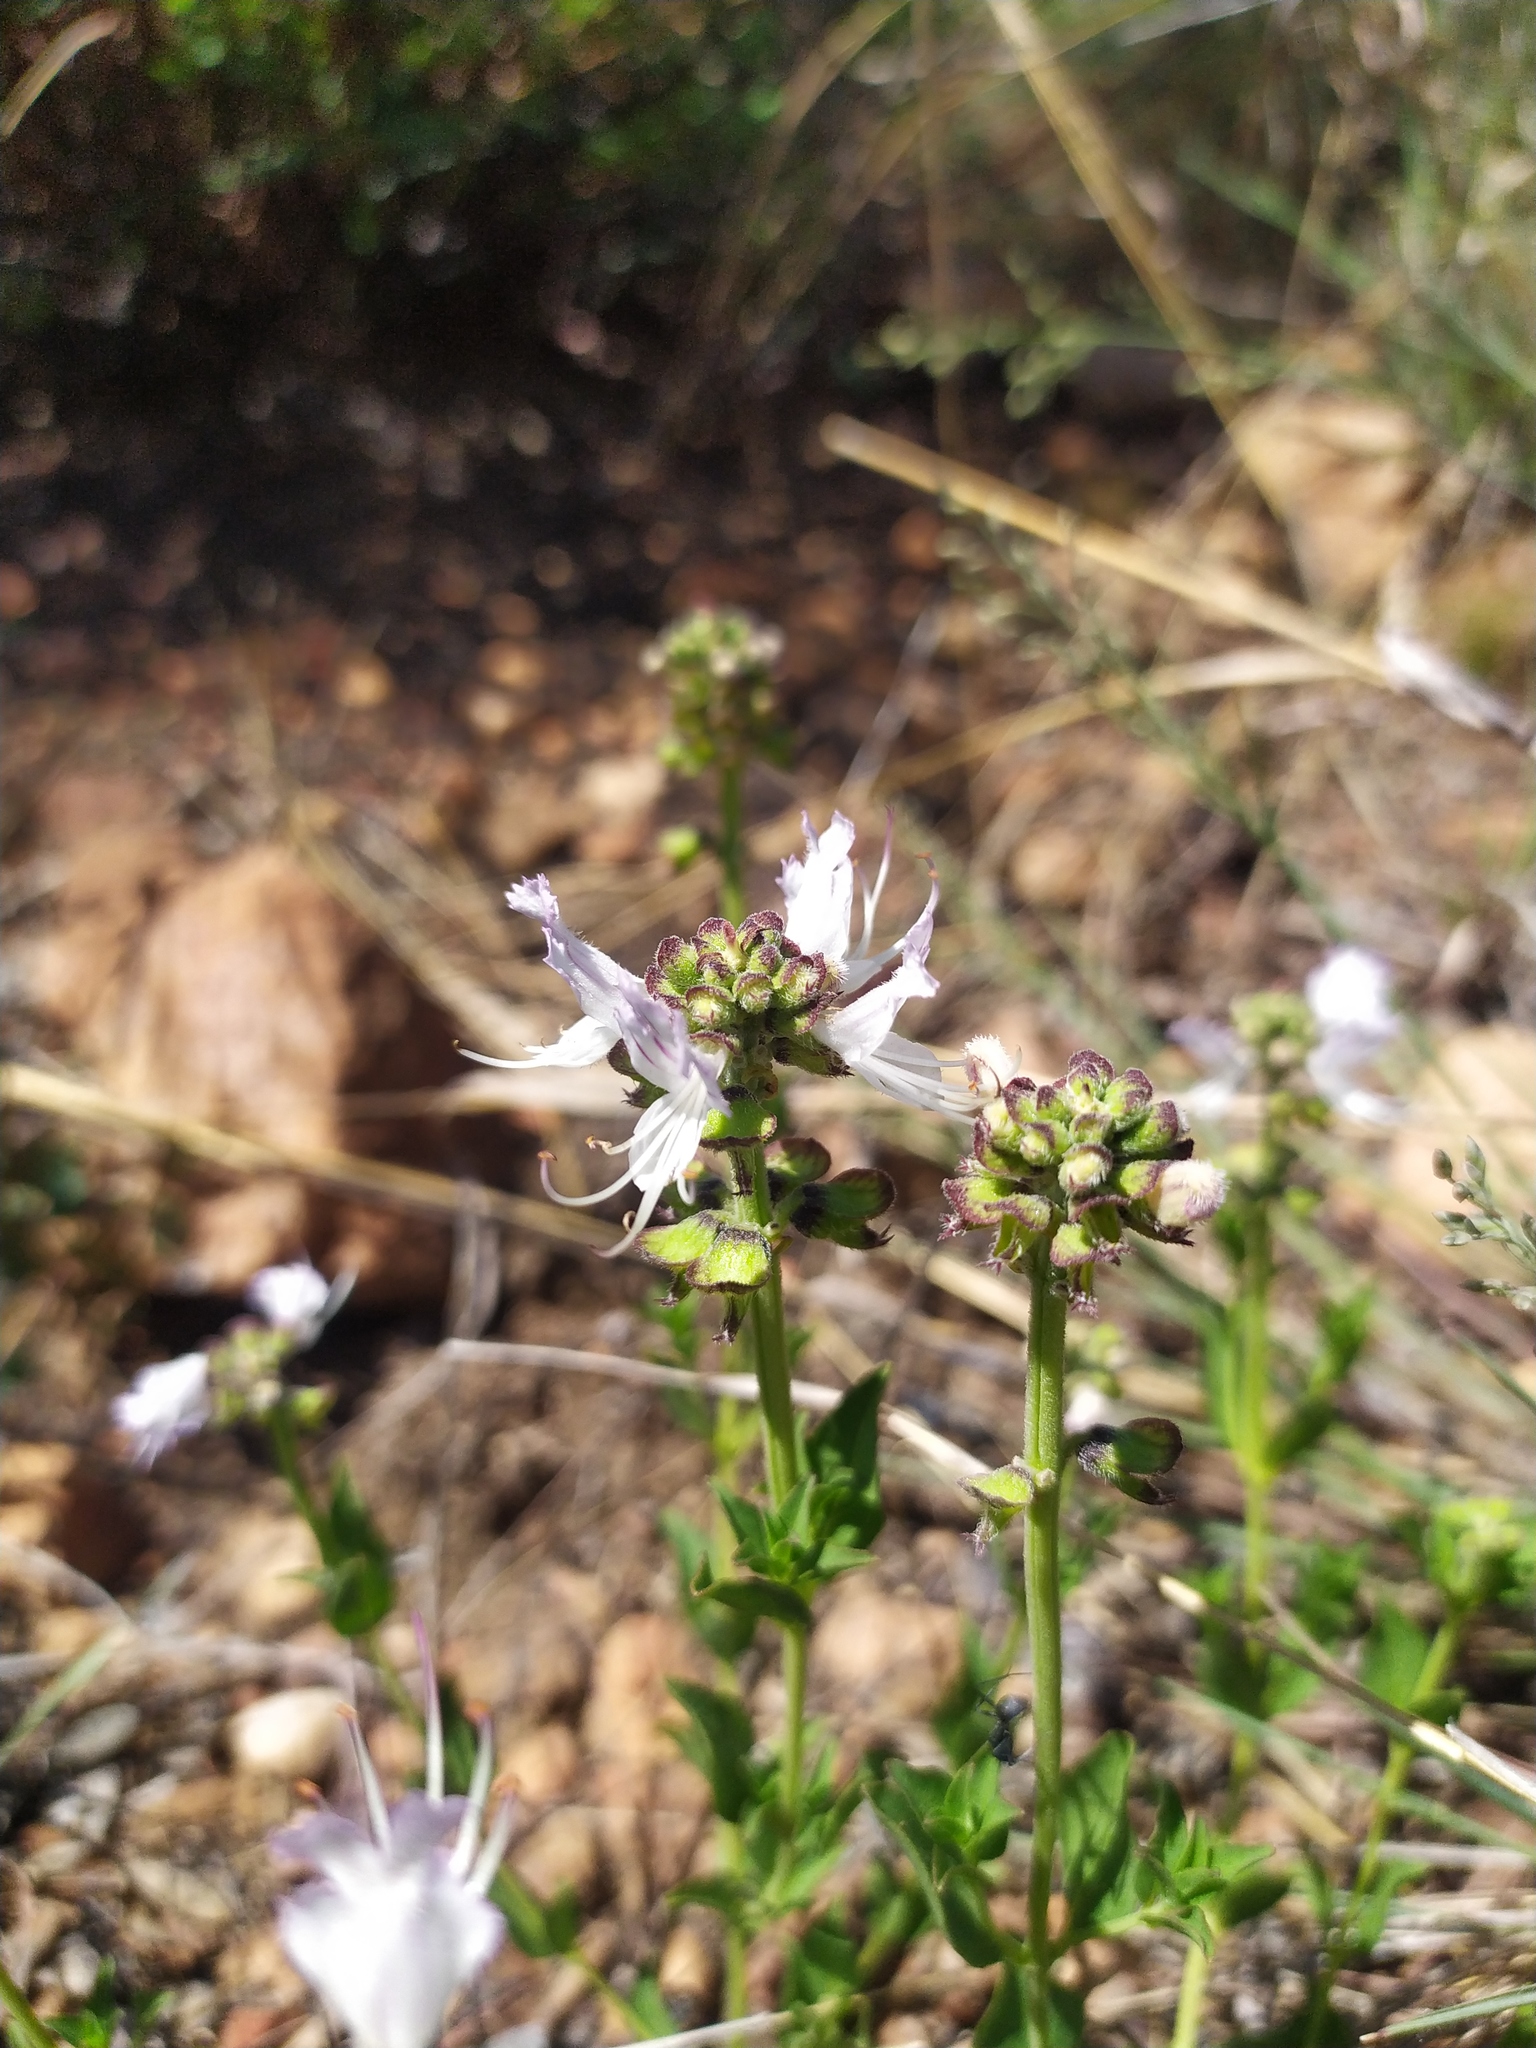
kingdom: Plantae
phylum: Tracheophyta
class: Magnoliopsida
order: Lamiales
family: Lamiaceae
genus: Ocimum
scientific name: Ocimum obovatum
